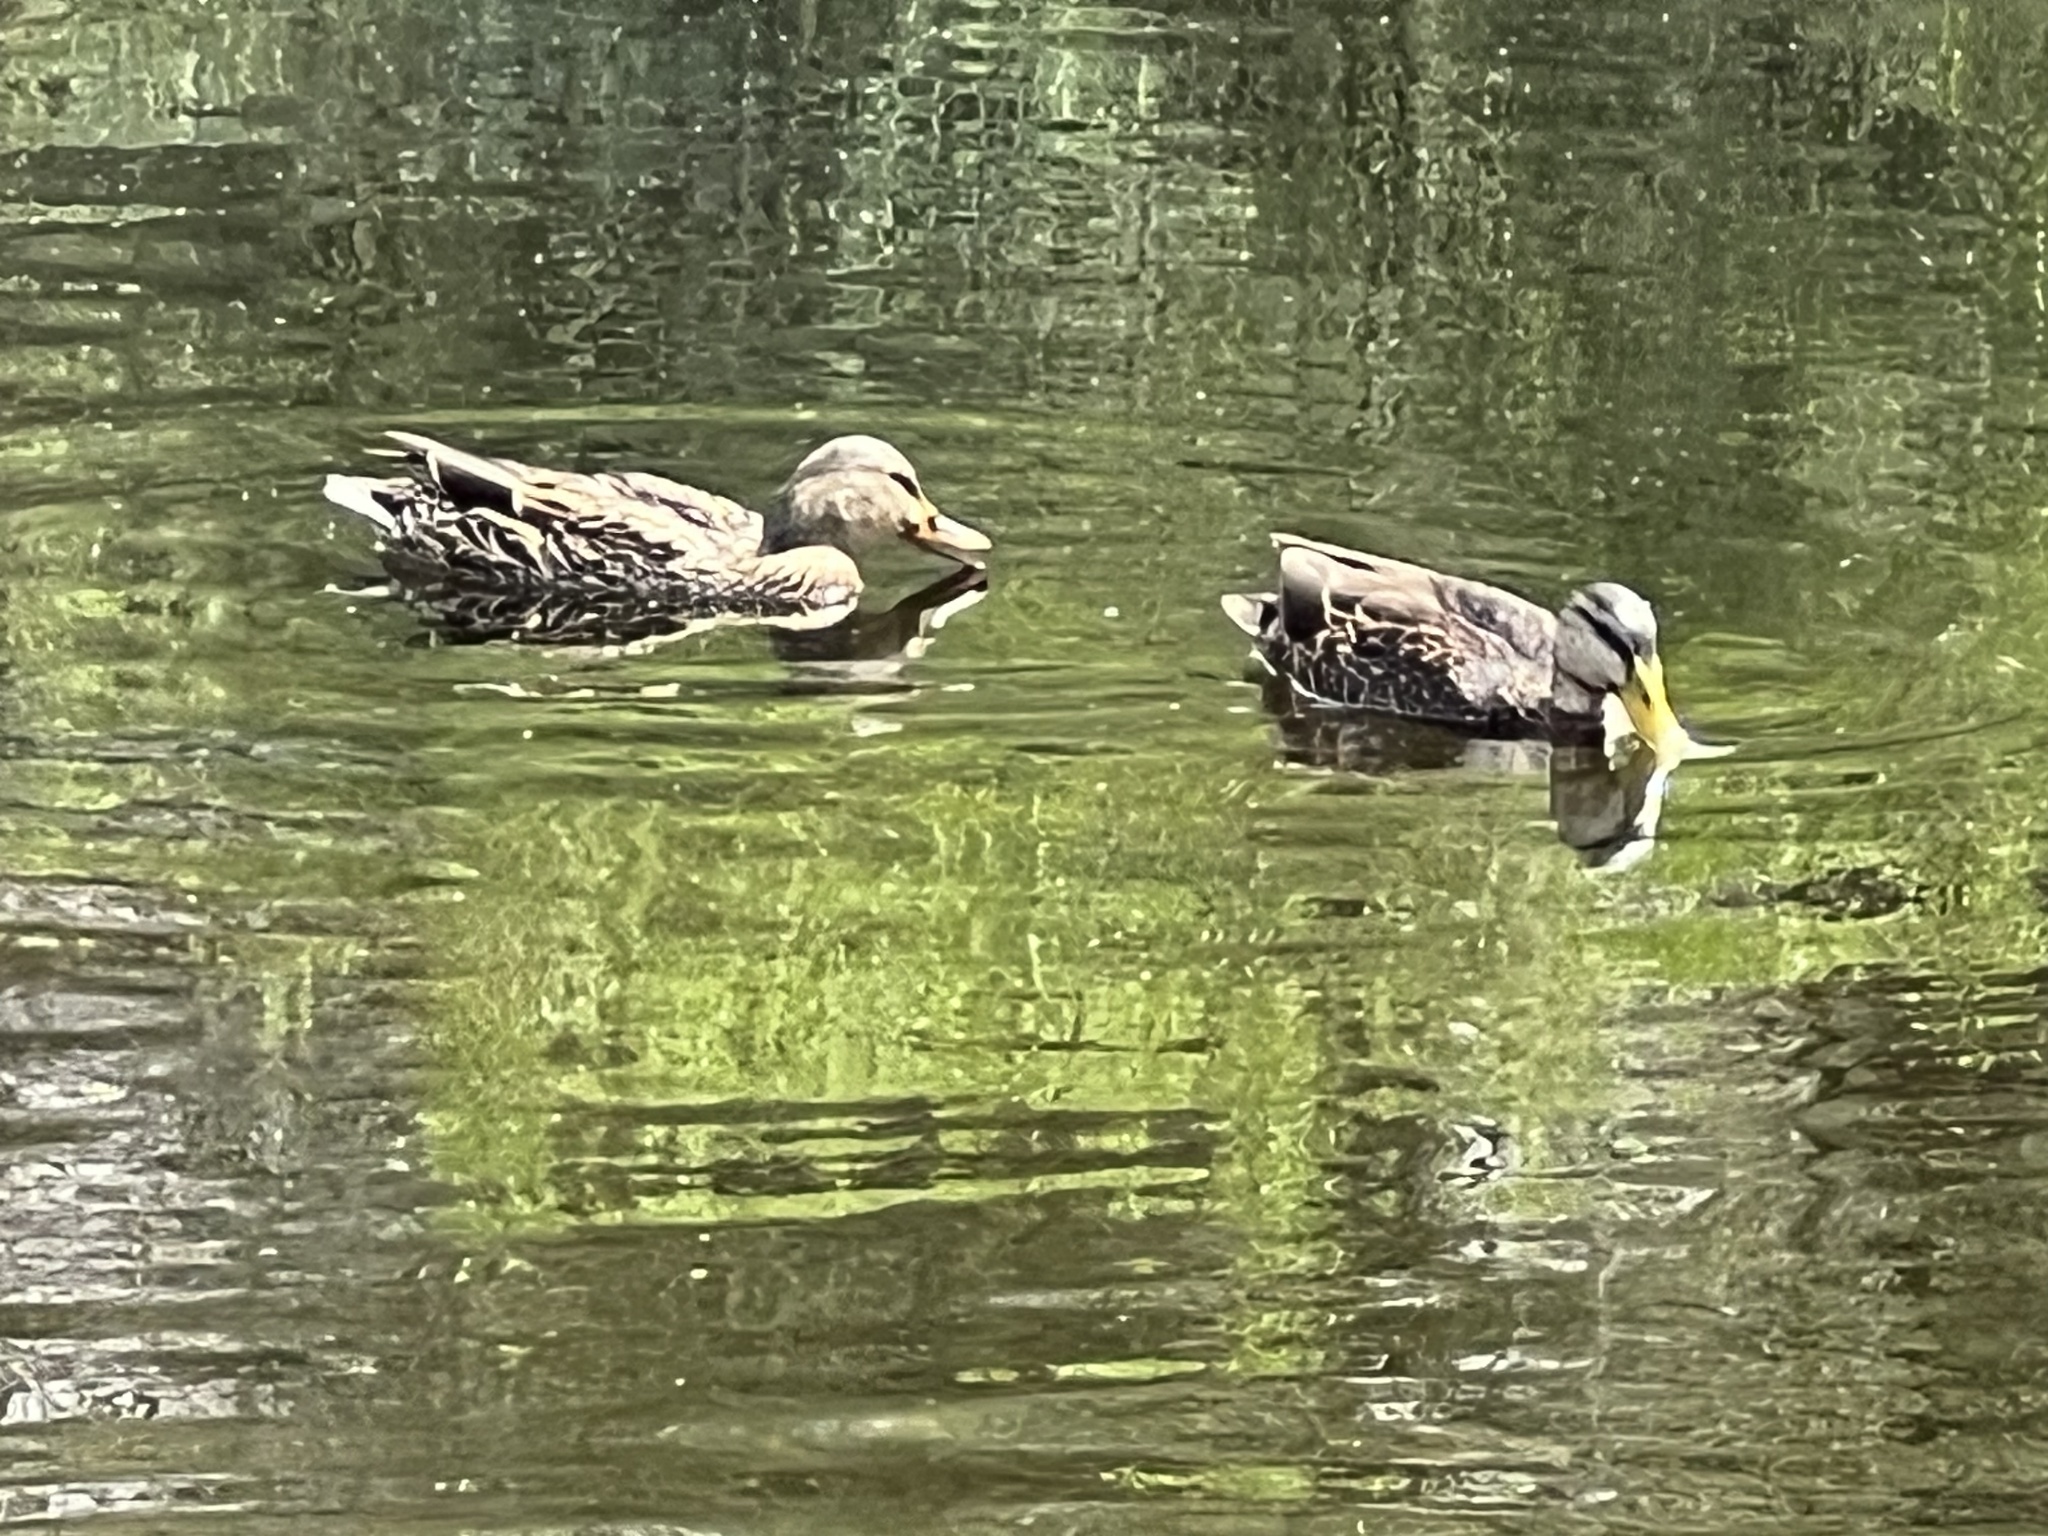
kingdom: Animalia
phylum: Chordata
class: Aves
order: Anseriformes
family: Anatidae
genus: Anas
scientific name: Anas diazi
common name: Mexican duck
